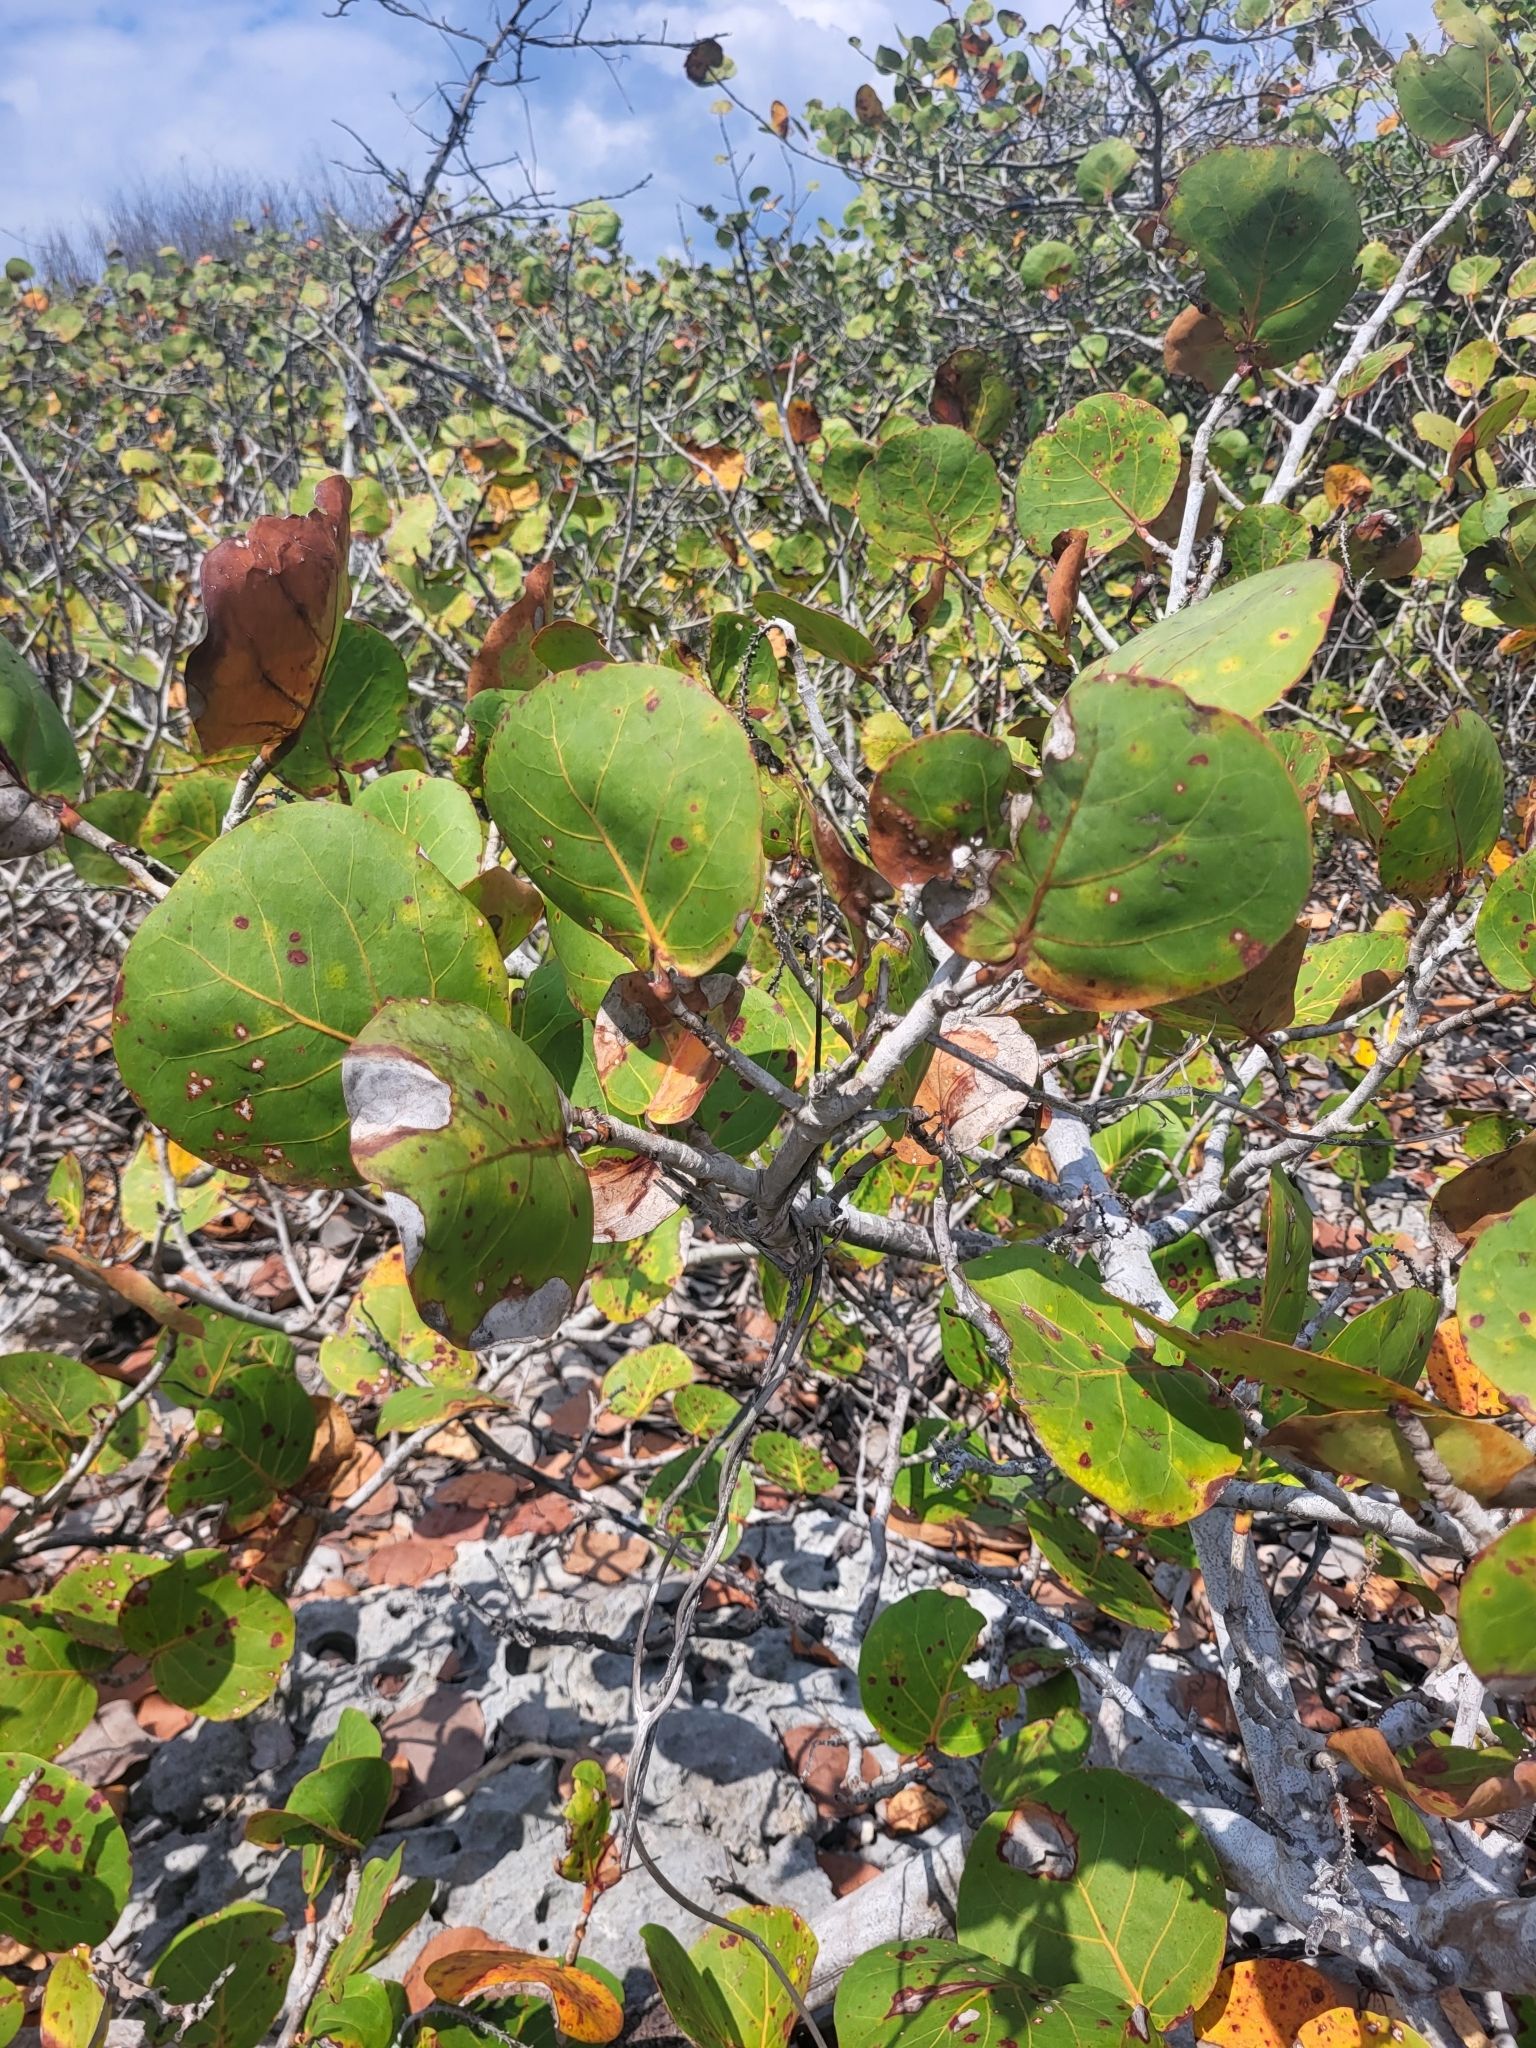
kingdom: Plantae
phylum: Tracheophyta
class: Magnoliopsida
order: Caryophyllales
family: Polygonaceae
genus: Coccoloba
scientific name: Coccoloba uvifera
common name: Seagrape
